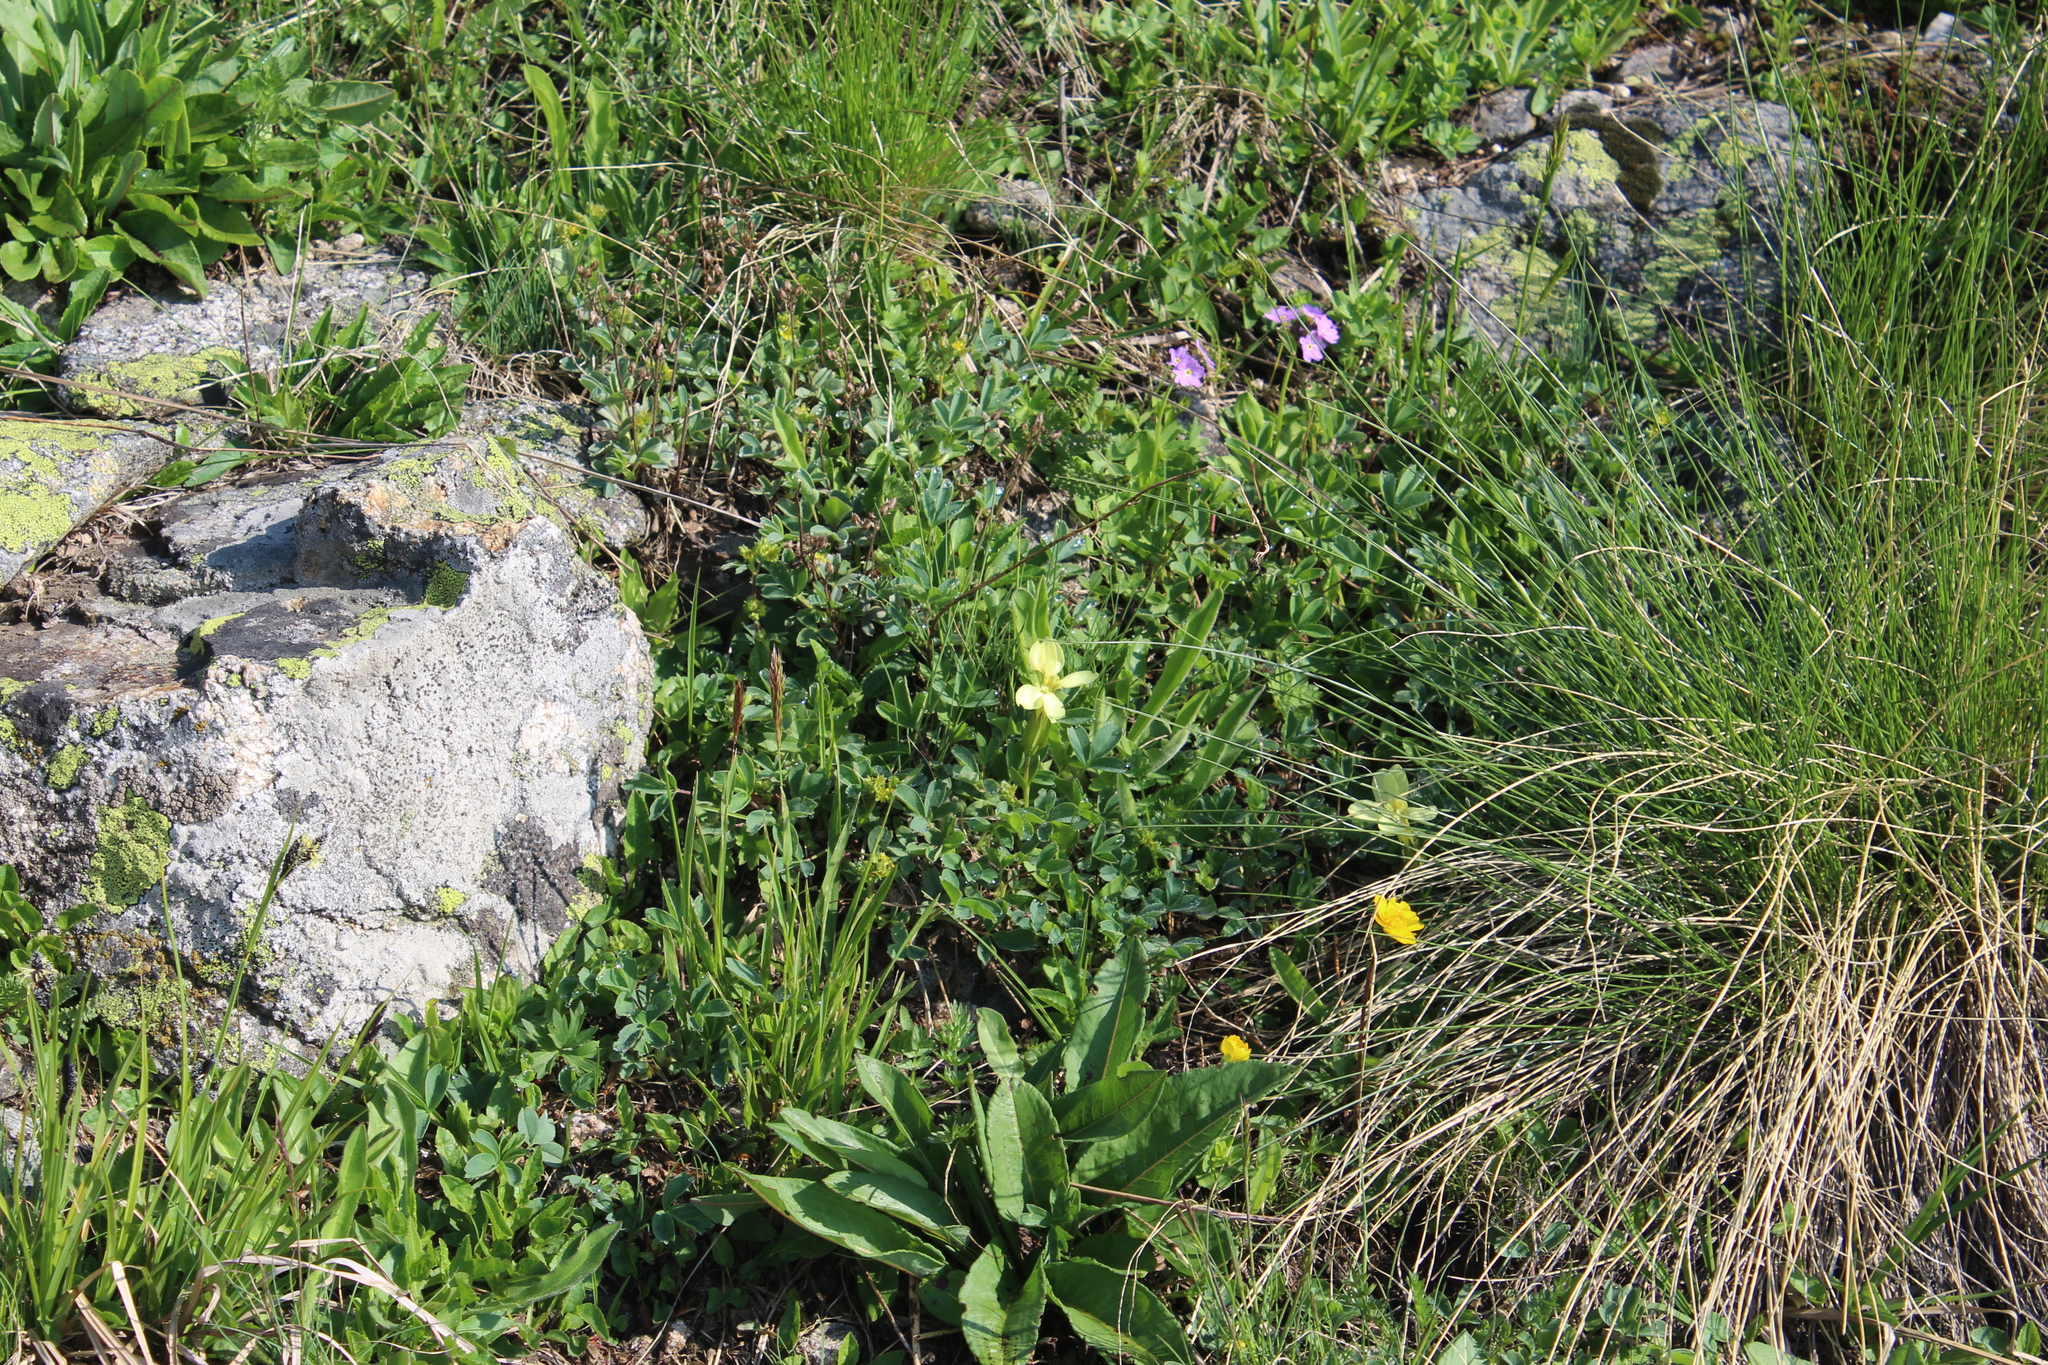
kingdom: Plantae
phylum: Tracheophyta
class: Magnoliopsida
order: Gentianales
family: Gentianaceae
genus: Gentiana
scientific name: Gentiana verna
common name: Spring gentian
